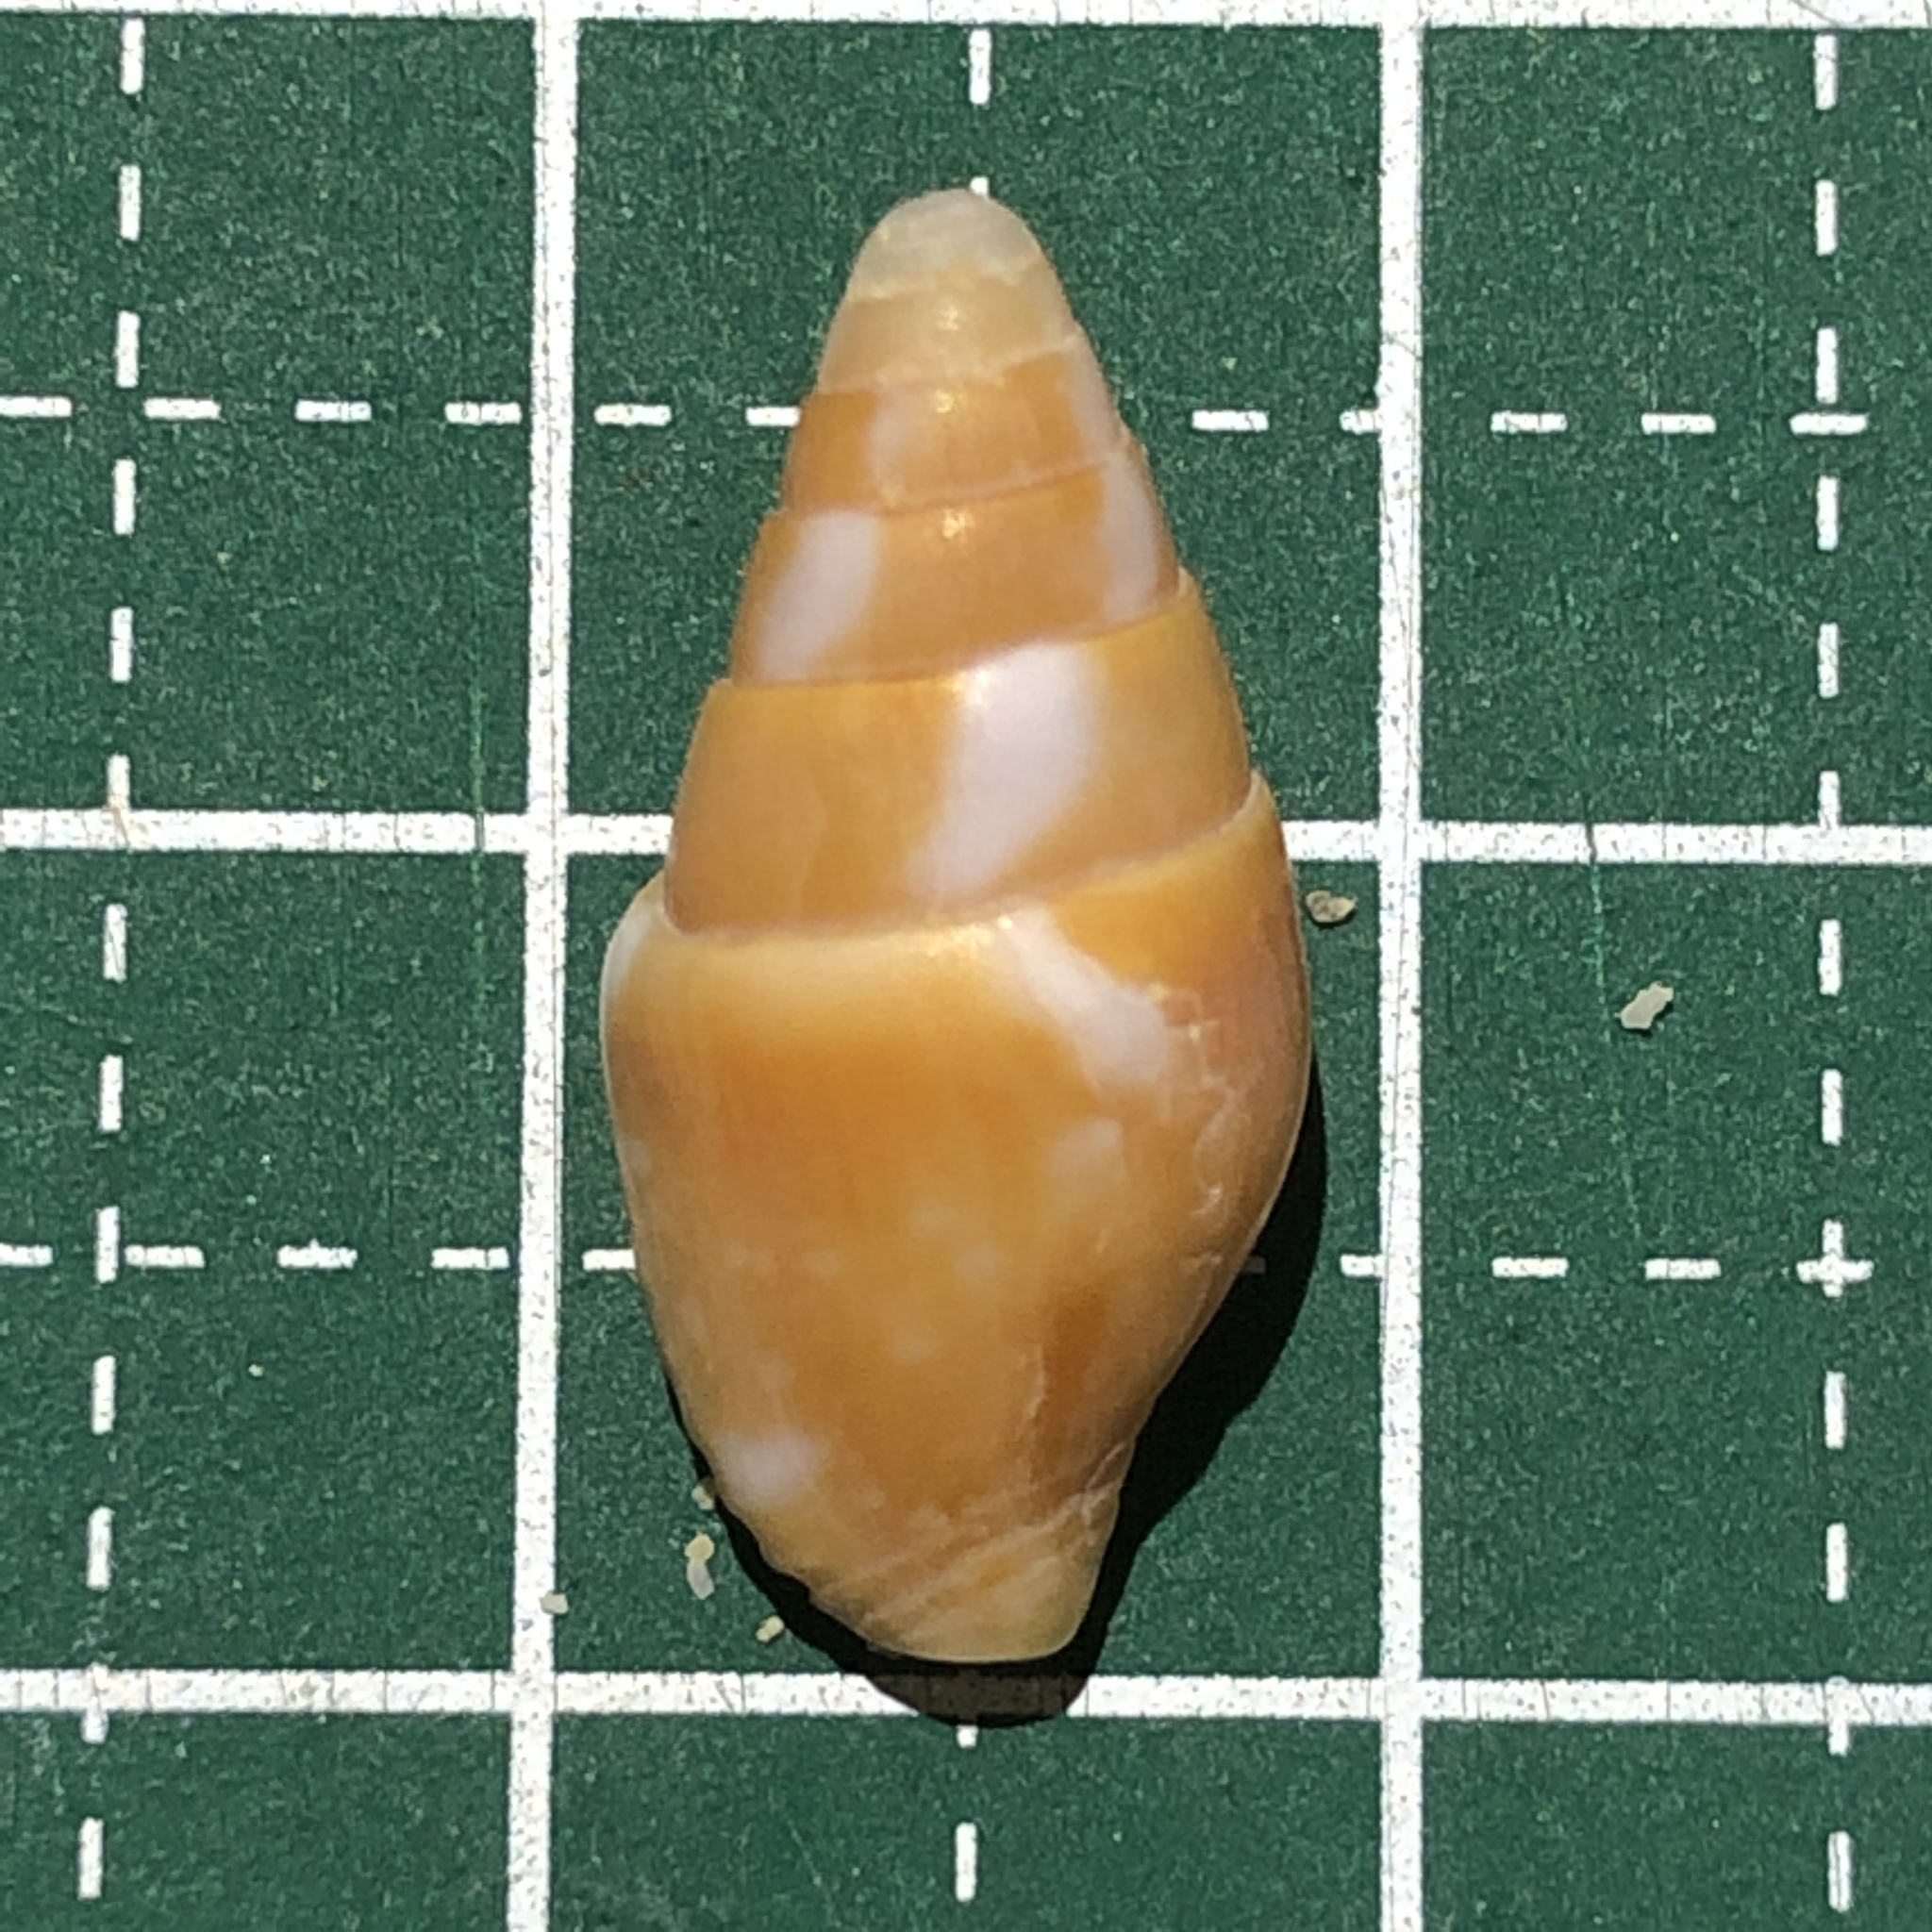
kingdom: Animalia
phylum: Mollusca
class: Gastropoda
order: Neogastropoda
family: Columbellidae
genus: Pyrene
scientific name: Pyrene flava
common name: Yellow dovesnail
